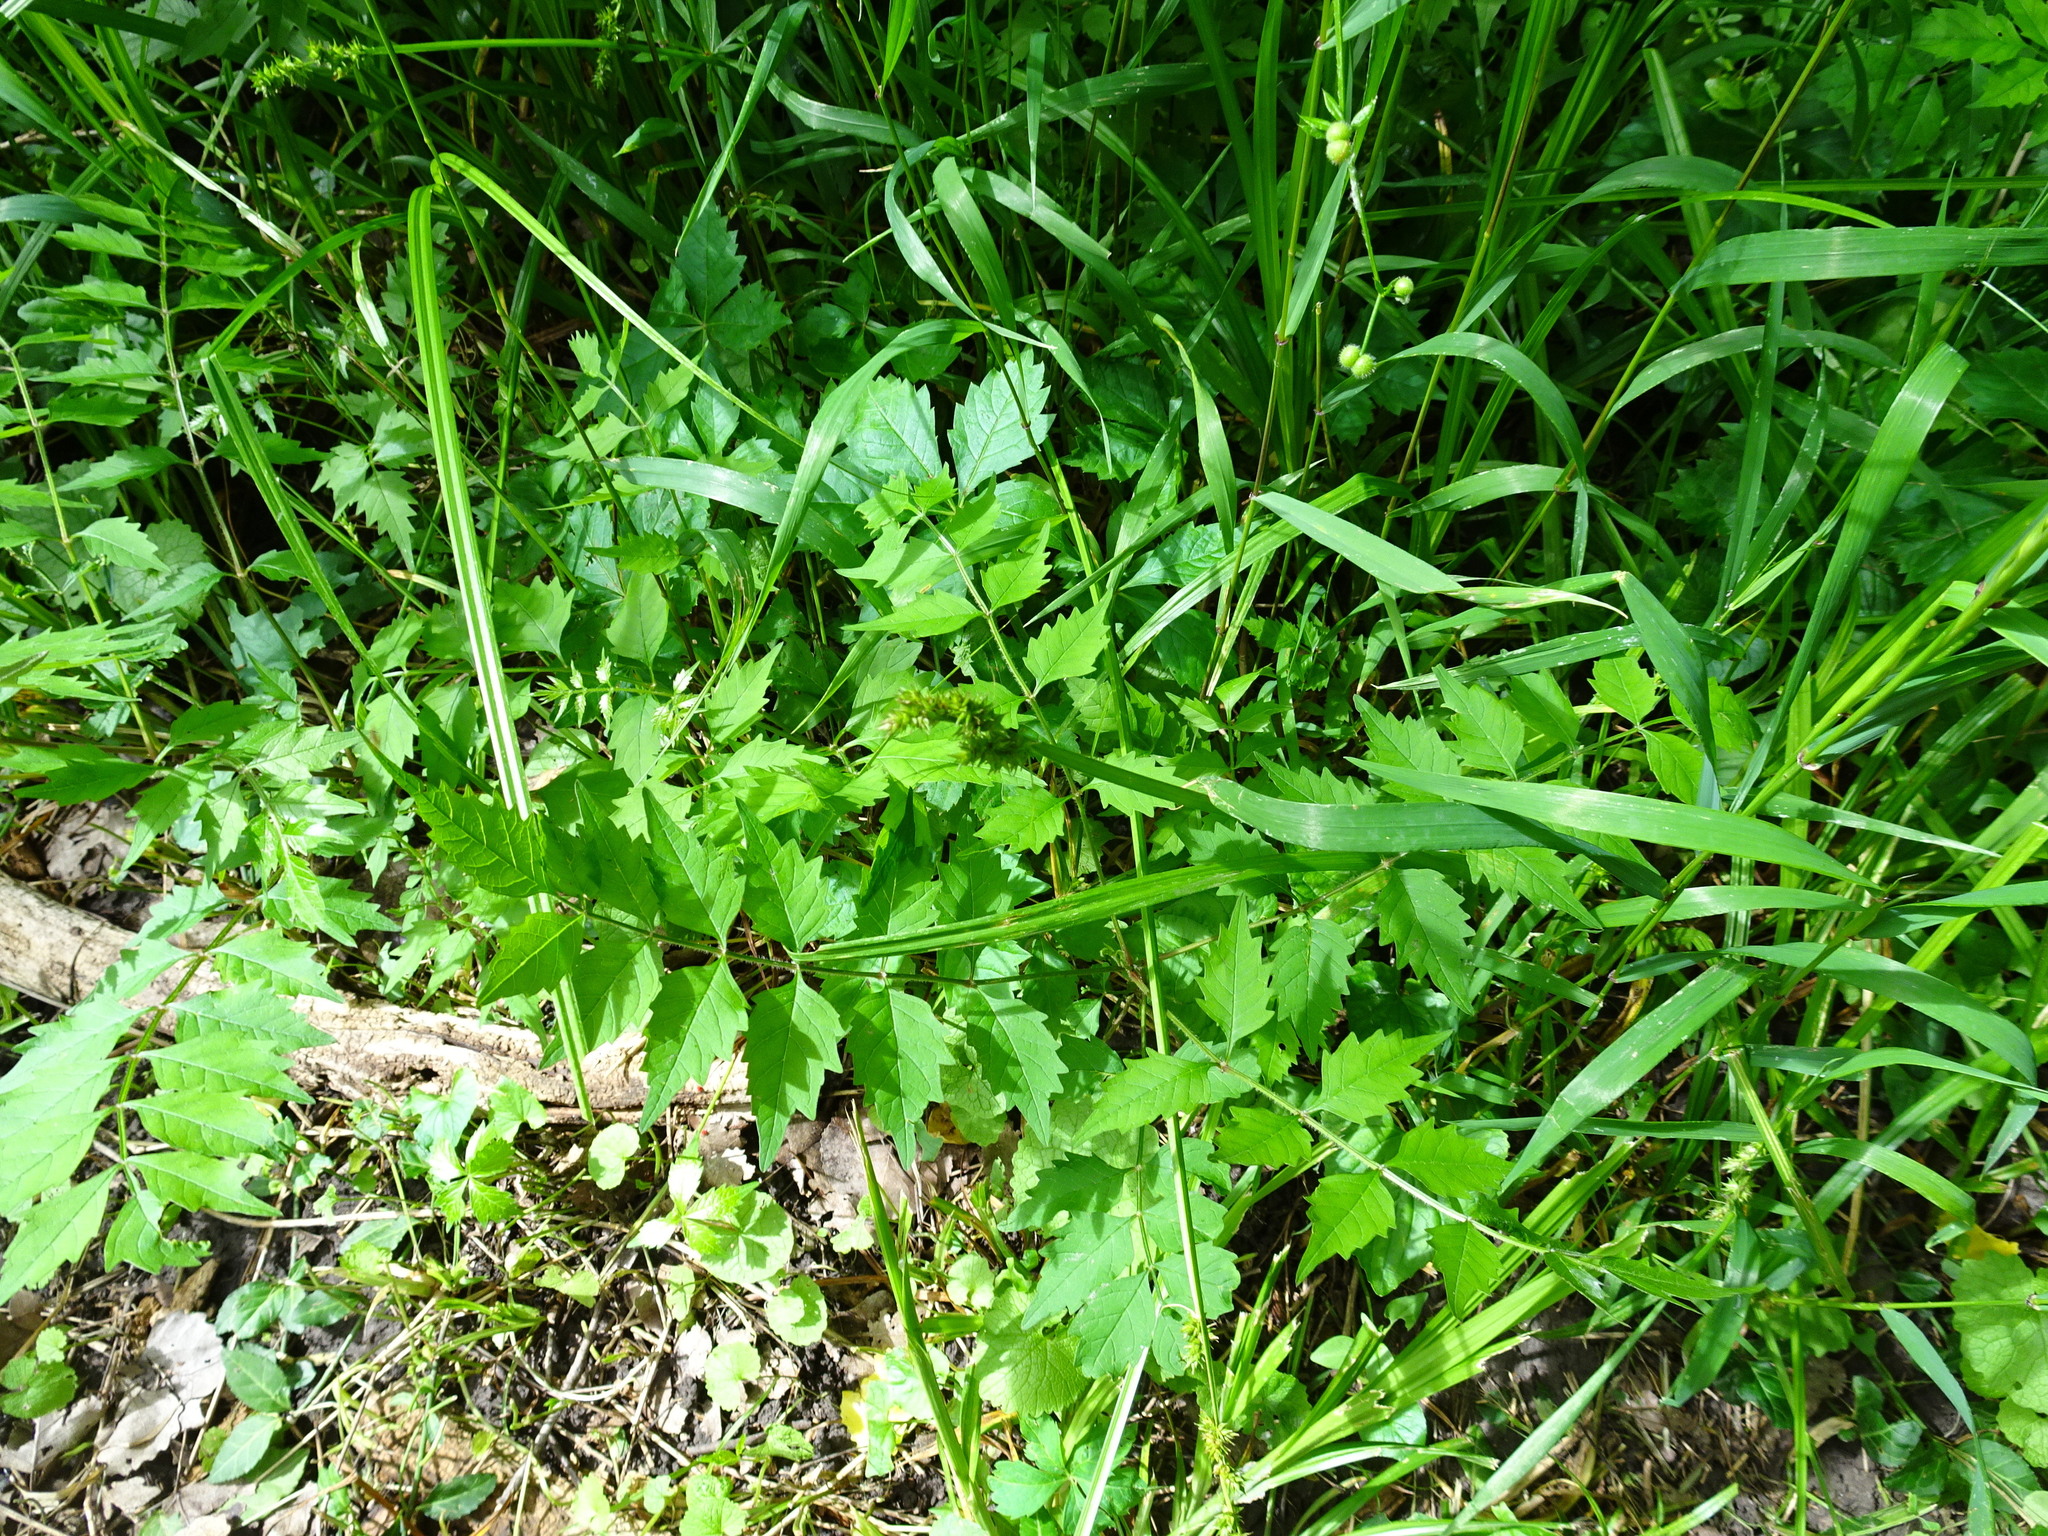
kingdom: Plantae
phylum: Tracheophyta
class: Magnoliopsida
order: Lamiales
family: Bignoniaceae
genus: Campsis
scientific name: Campsis radicans
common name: Trumpet-creeper
